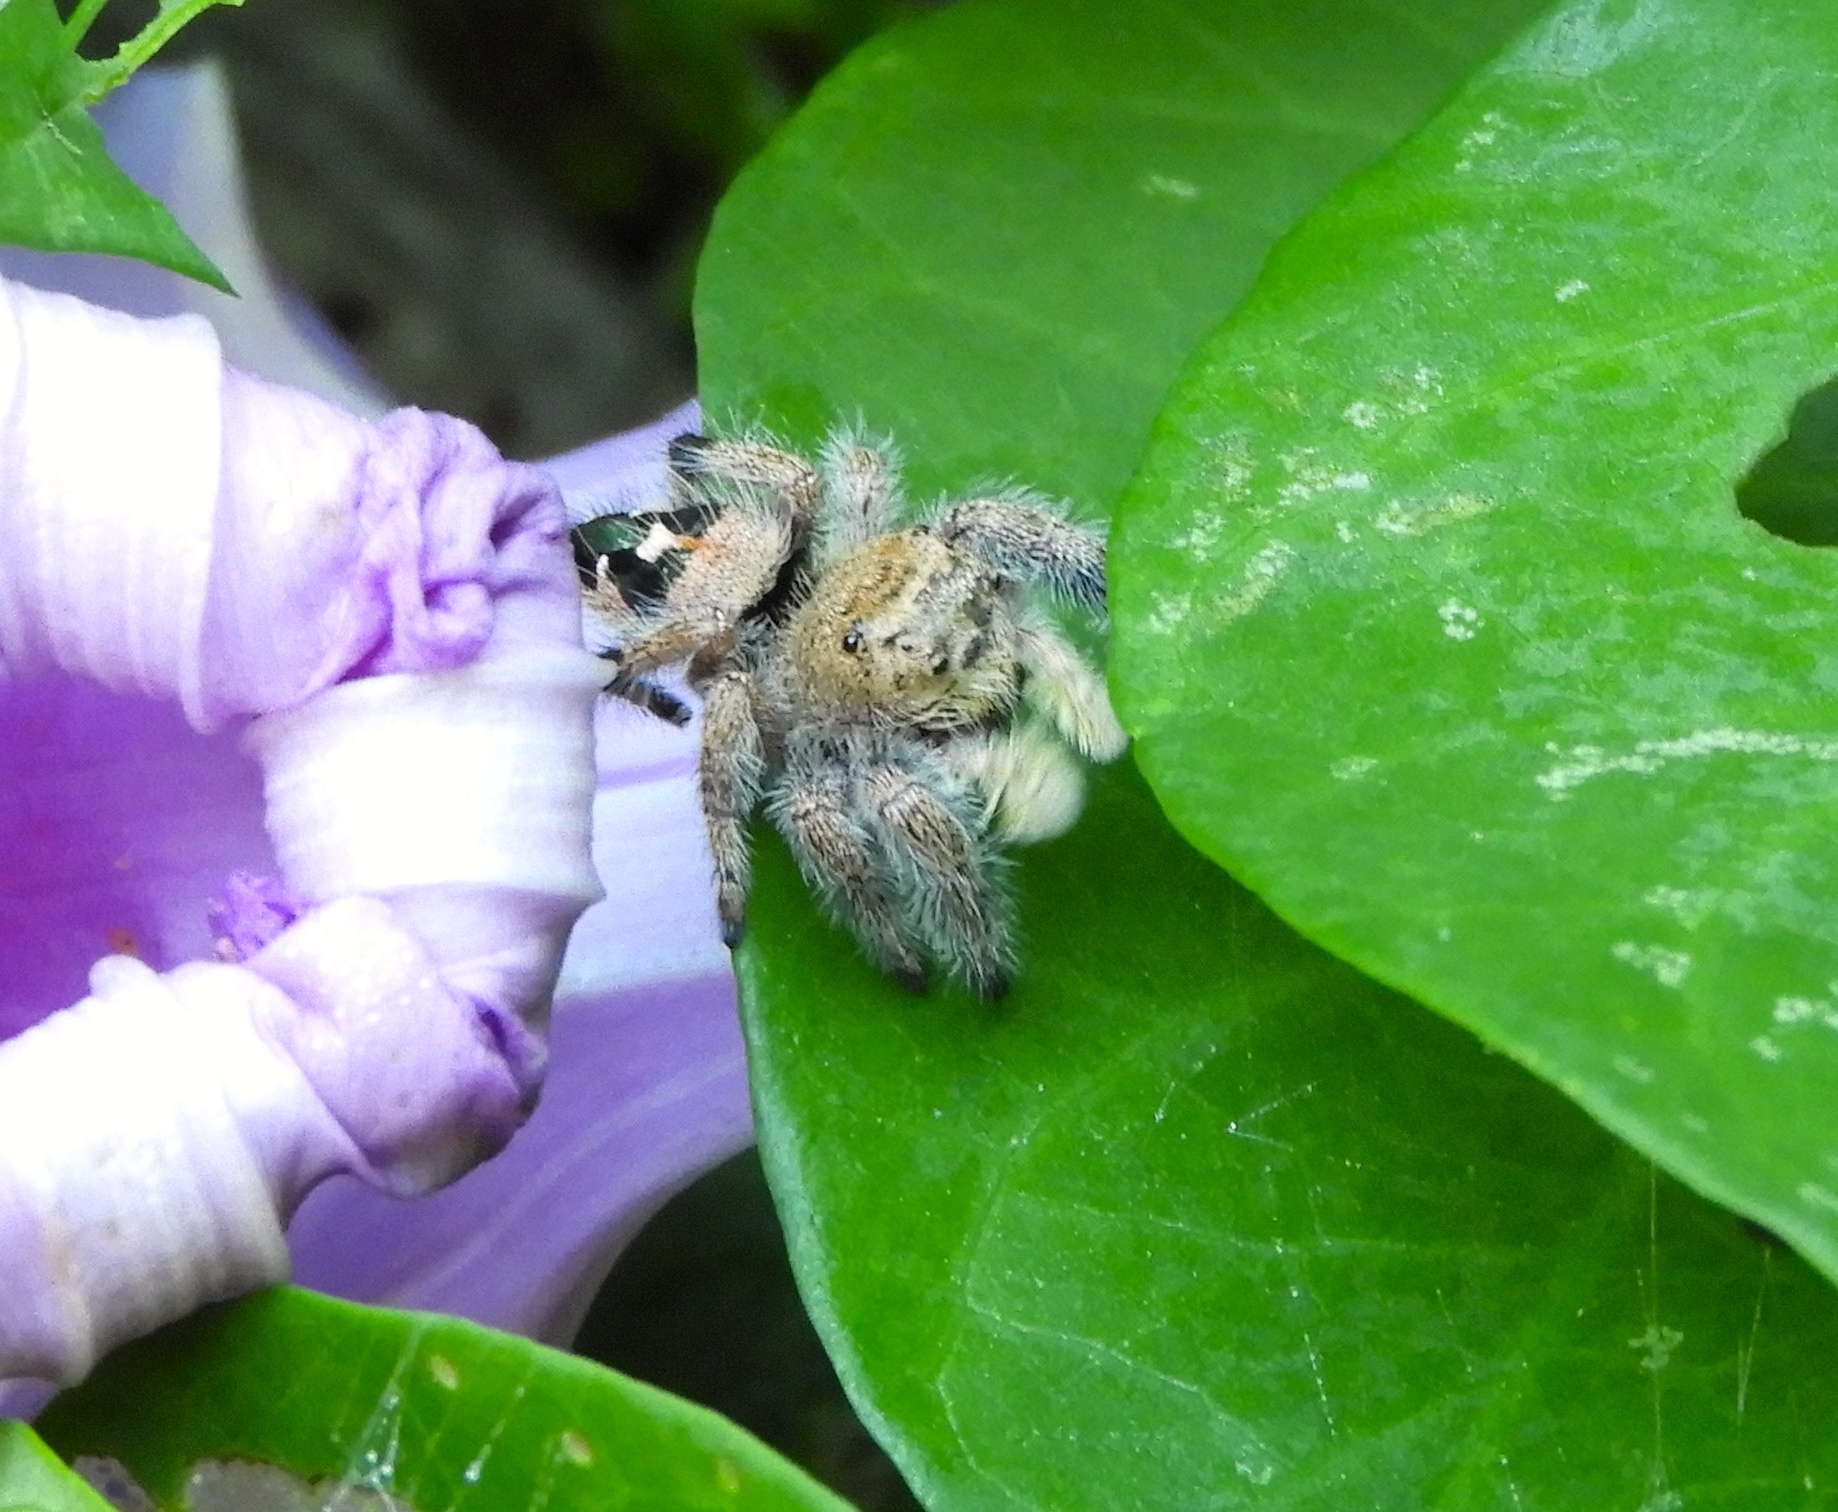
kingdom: Animalia
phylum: Arthropoda
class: Arachnida
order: Araneae
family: Salticidae
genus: Phidippus
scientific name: Phidippus maddisoni
